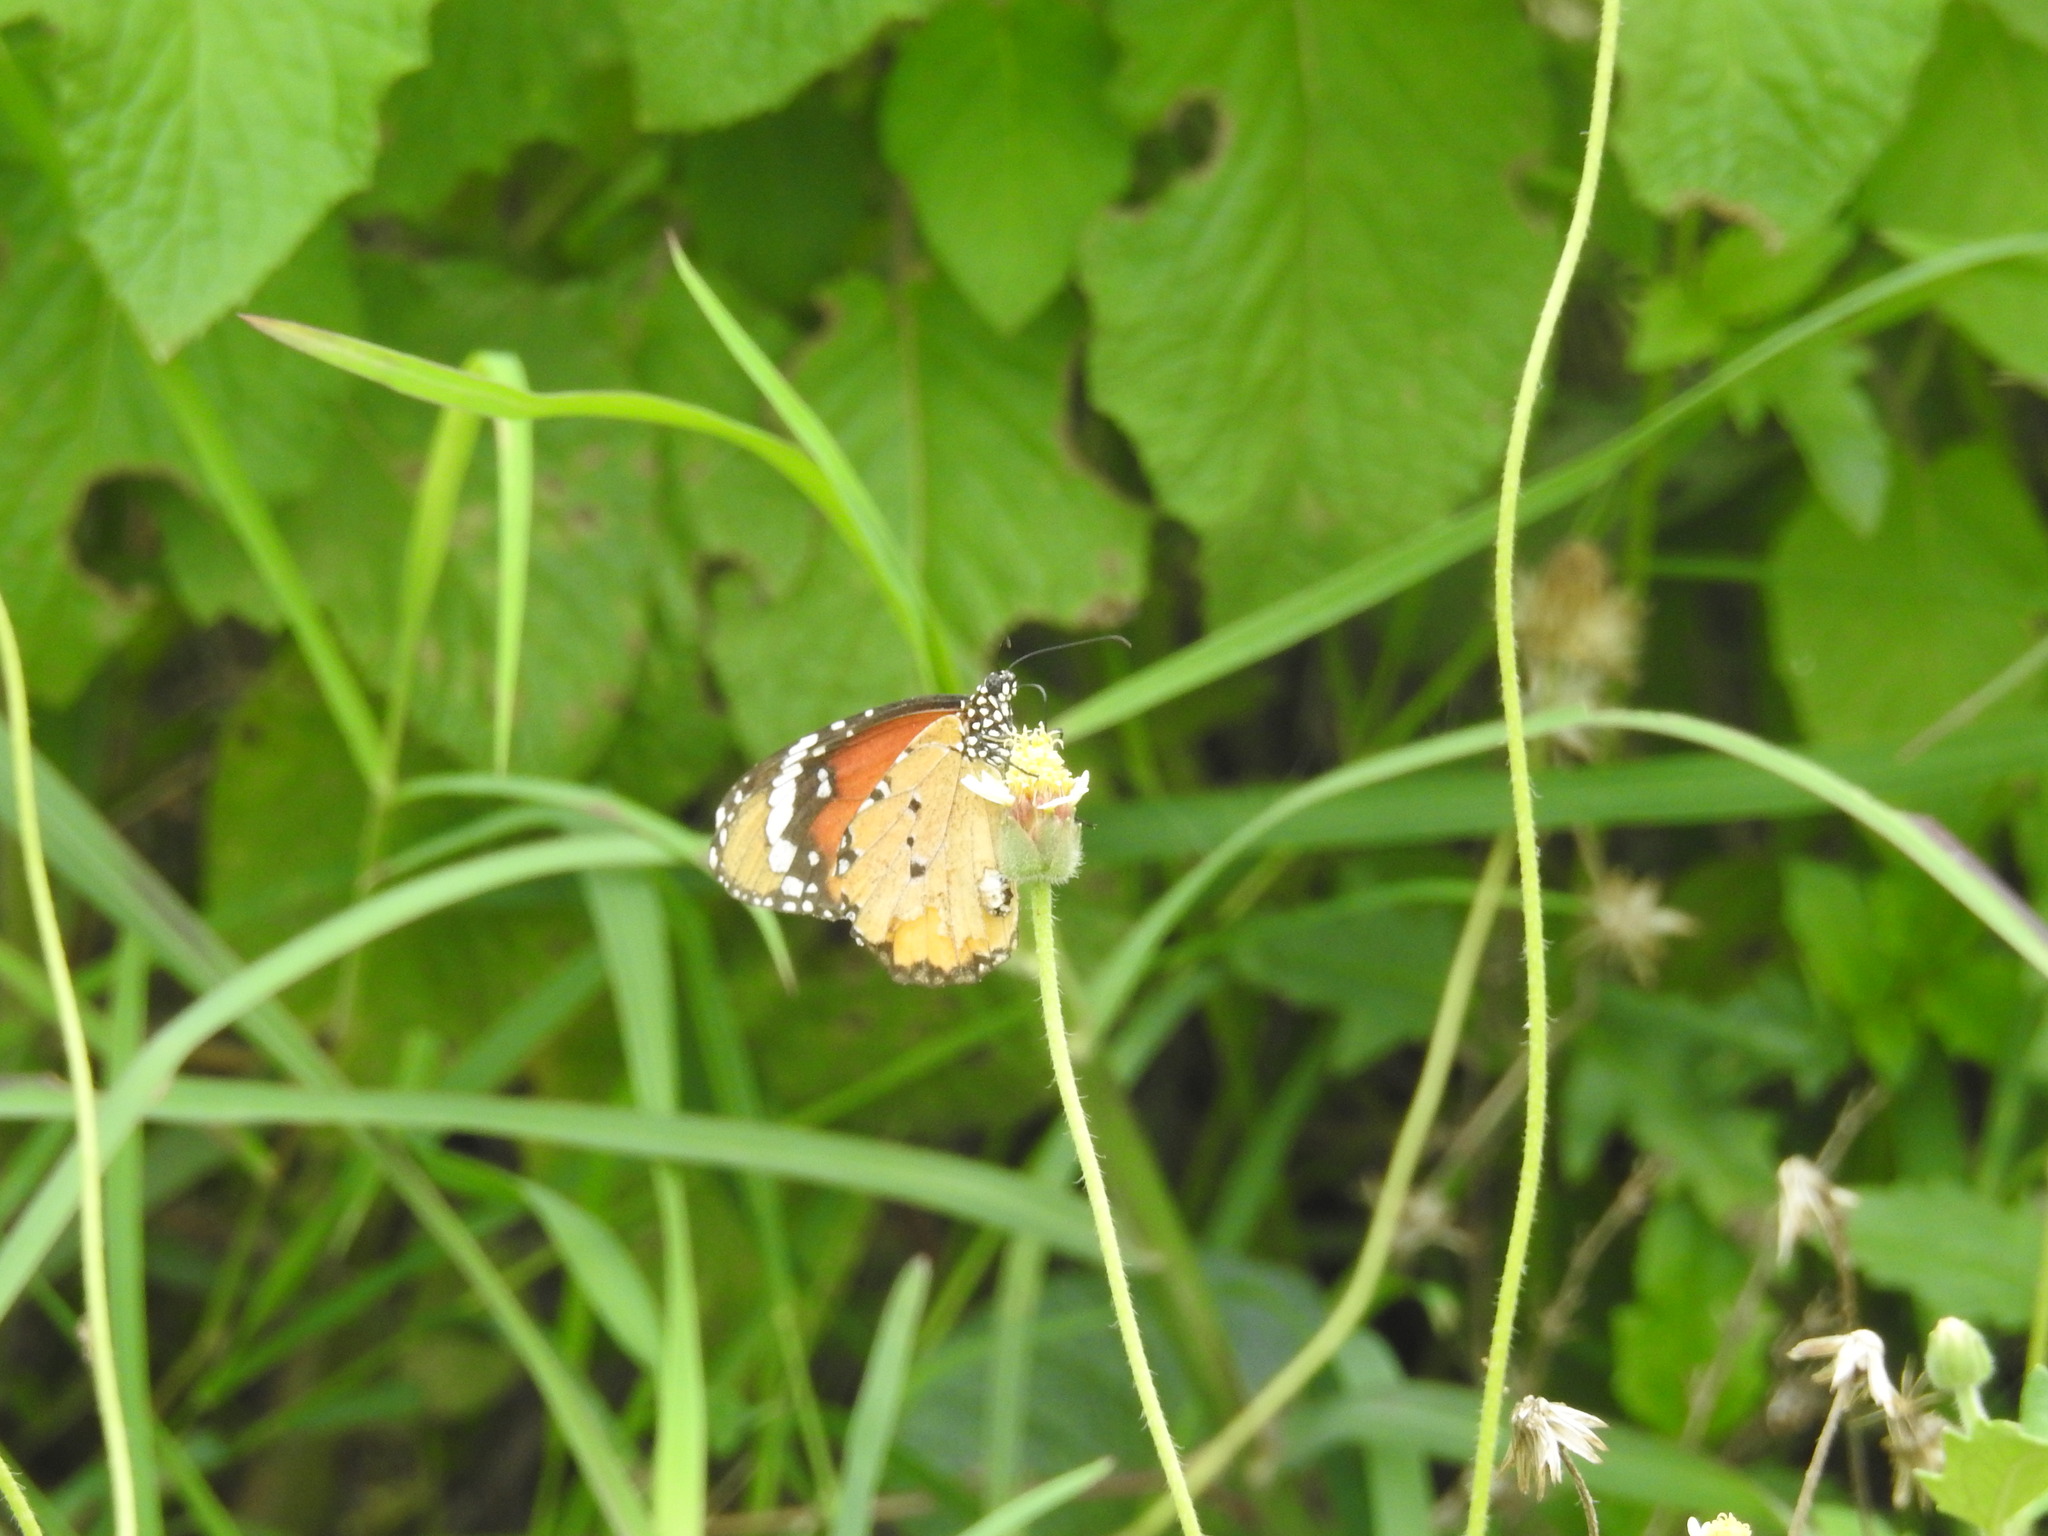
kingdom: Animalia
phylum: Arthropoda
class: Insecta
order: Lepidoptera
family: Nymphalidae
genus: Danaus
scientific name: Danaus chrysippus
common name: Plain tiger
